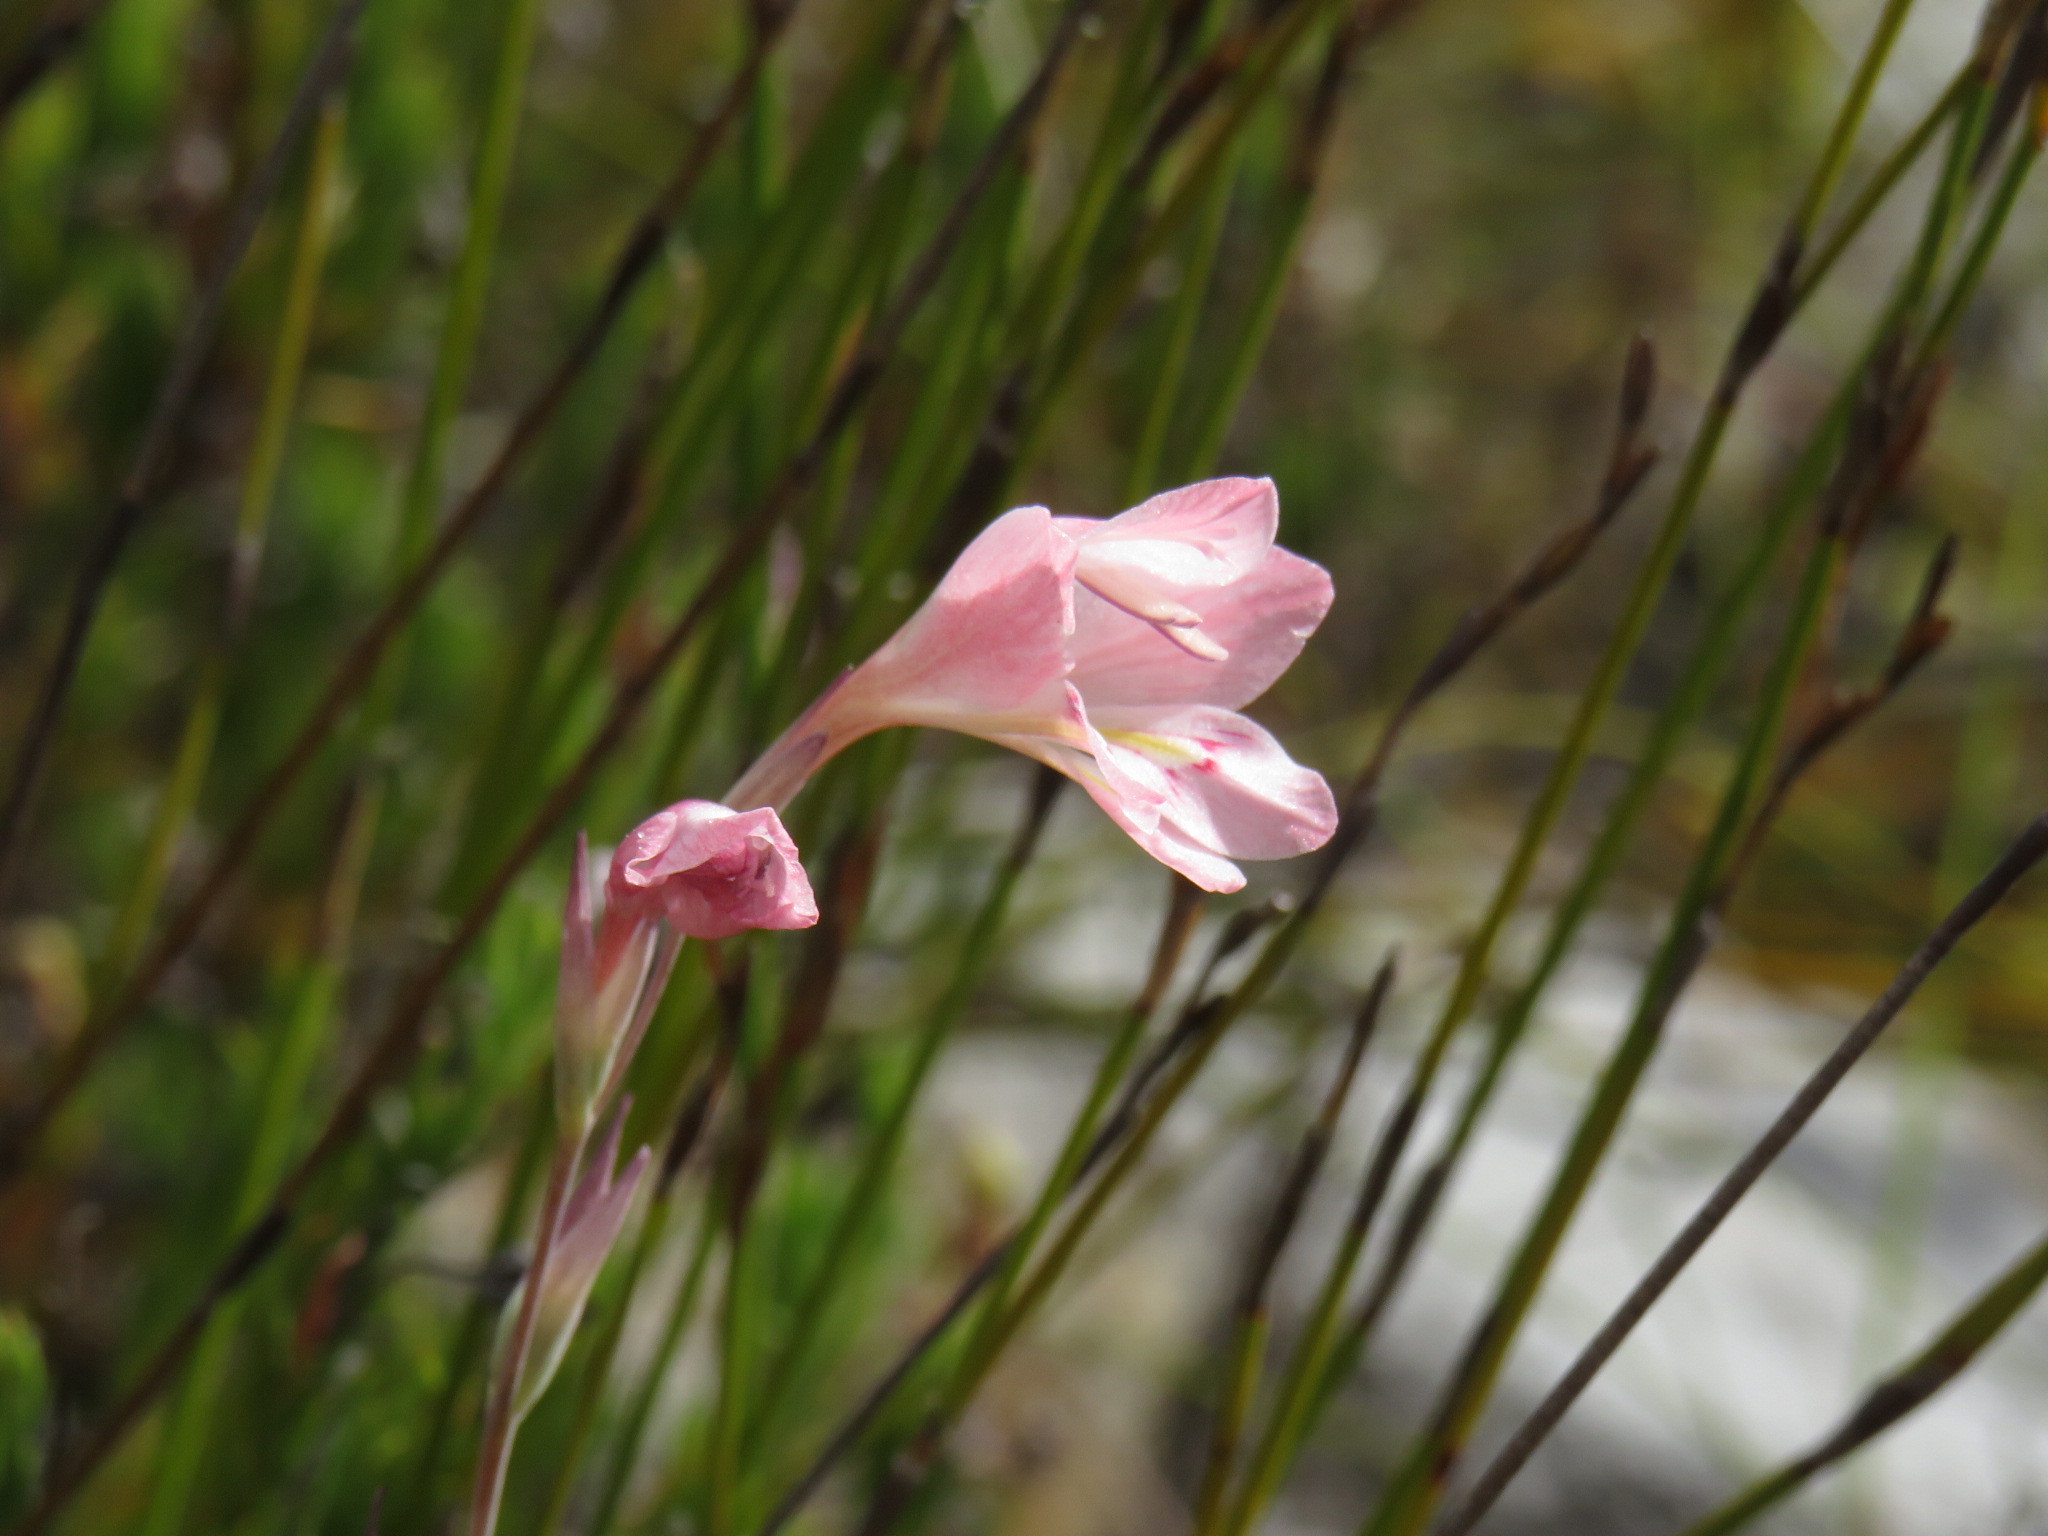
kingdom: Plantae
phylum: Tracheophyta
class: Liliopsida
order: Asparagales
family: Iridaceae
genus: Gladiolus
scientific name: Gladiolus brevifolius
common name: March pypie
